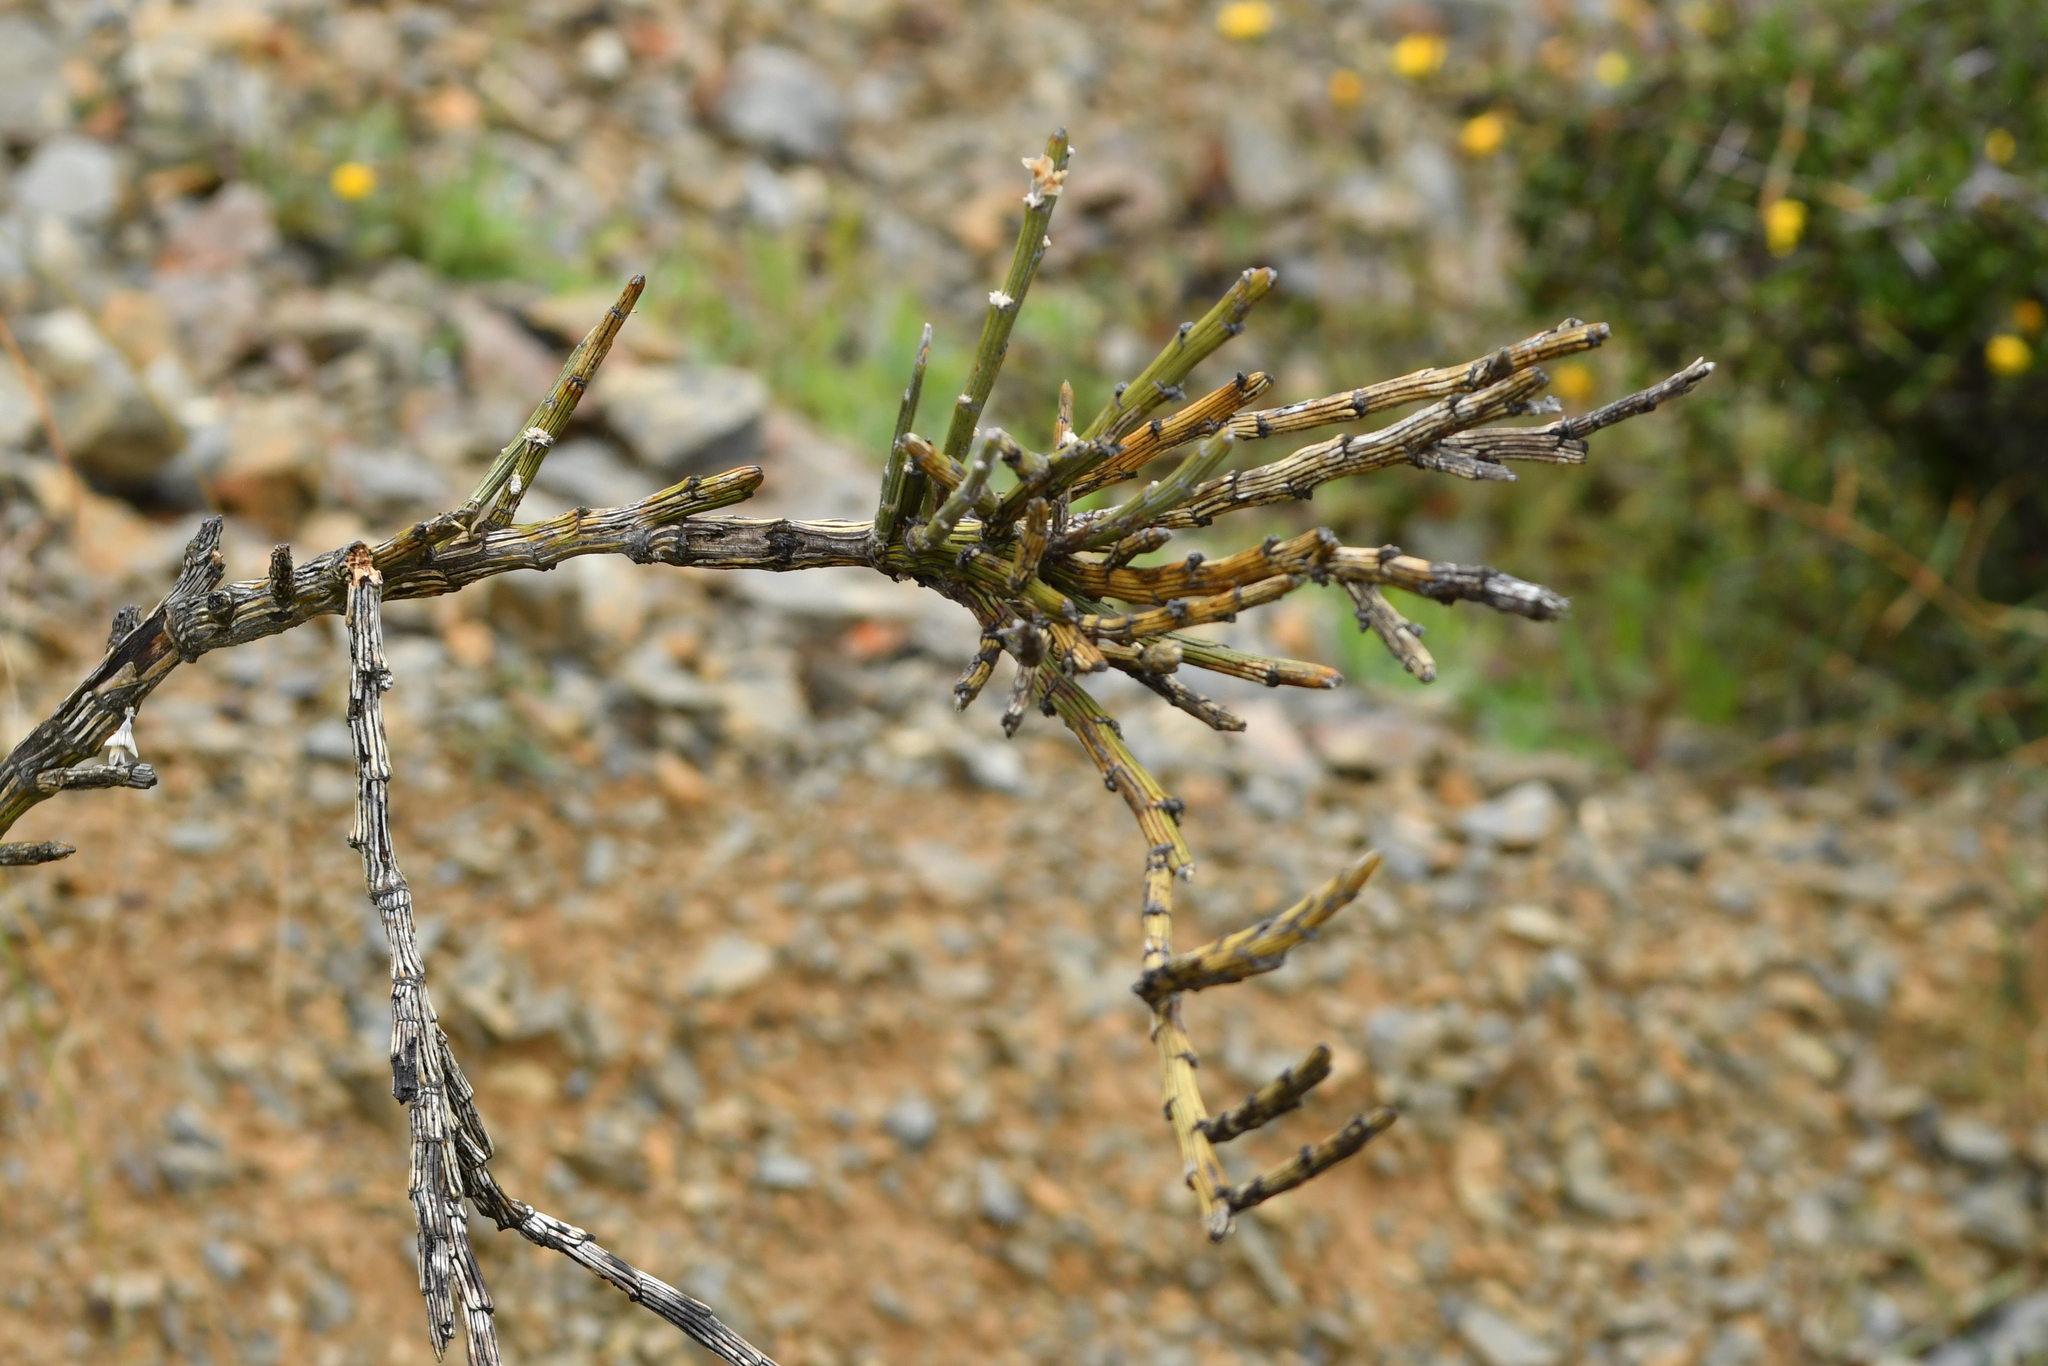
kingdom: Plantae
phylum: Tracheophyta
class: Magnoliopsida
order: Fabales
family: Fabaceae
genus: Carmichaelia
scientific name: Carmichaelia crassicaulis
